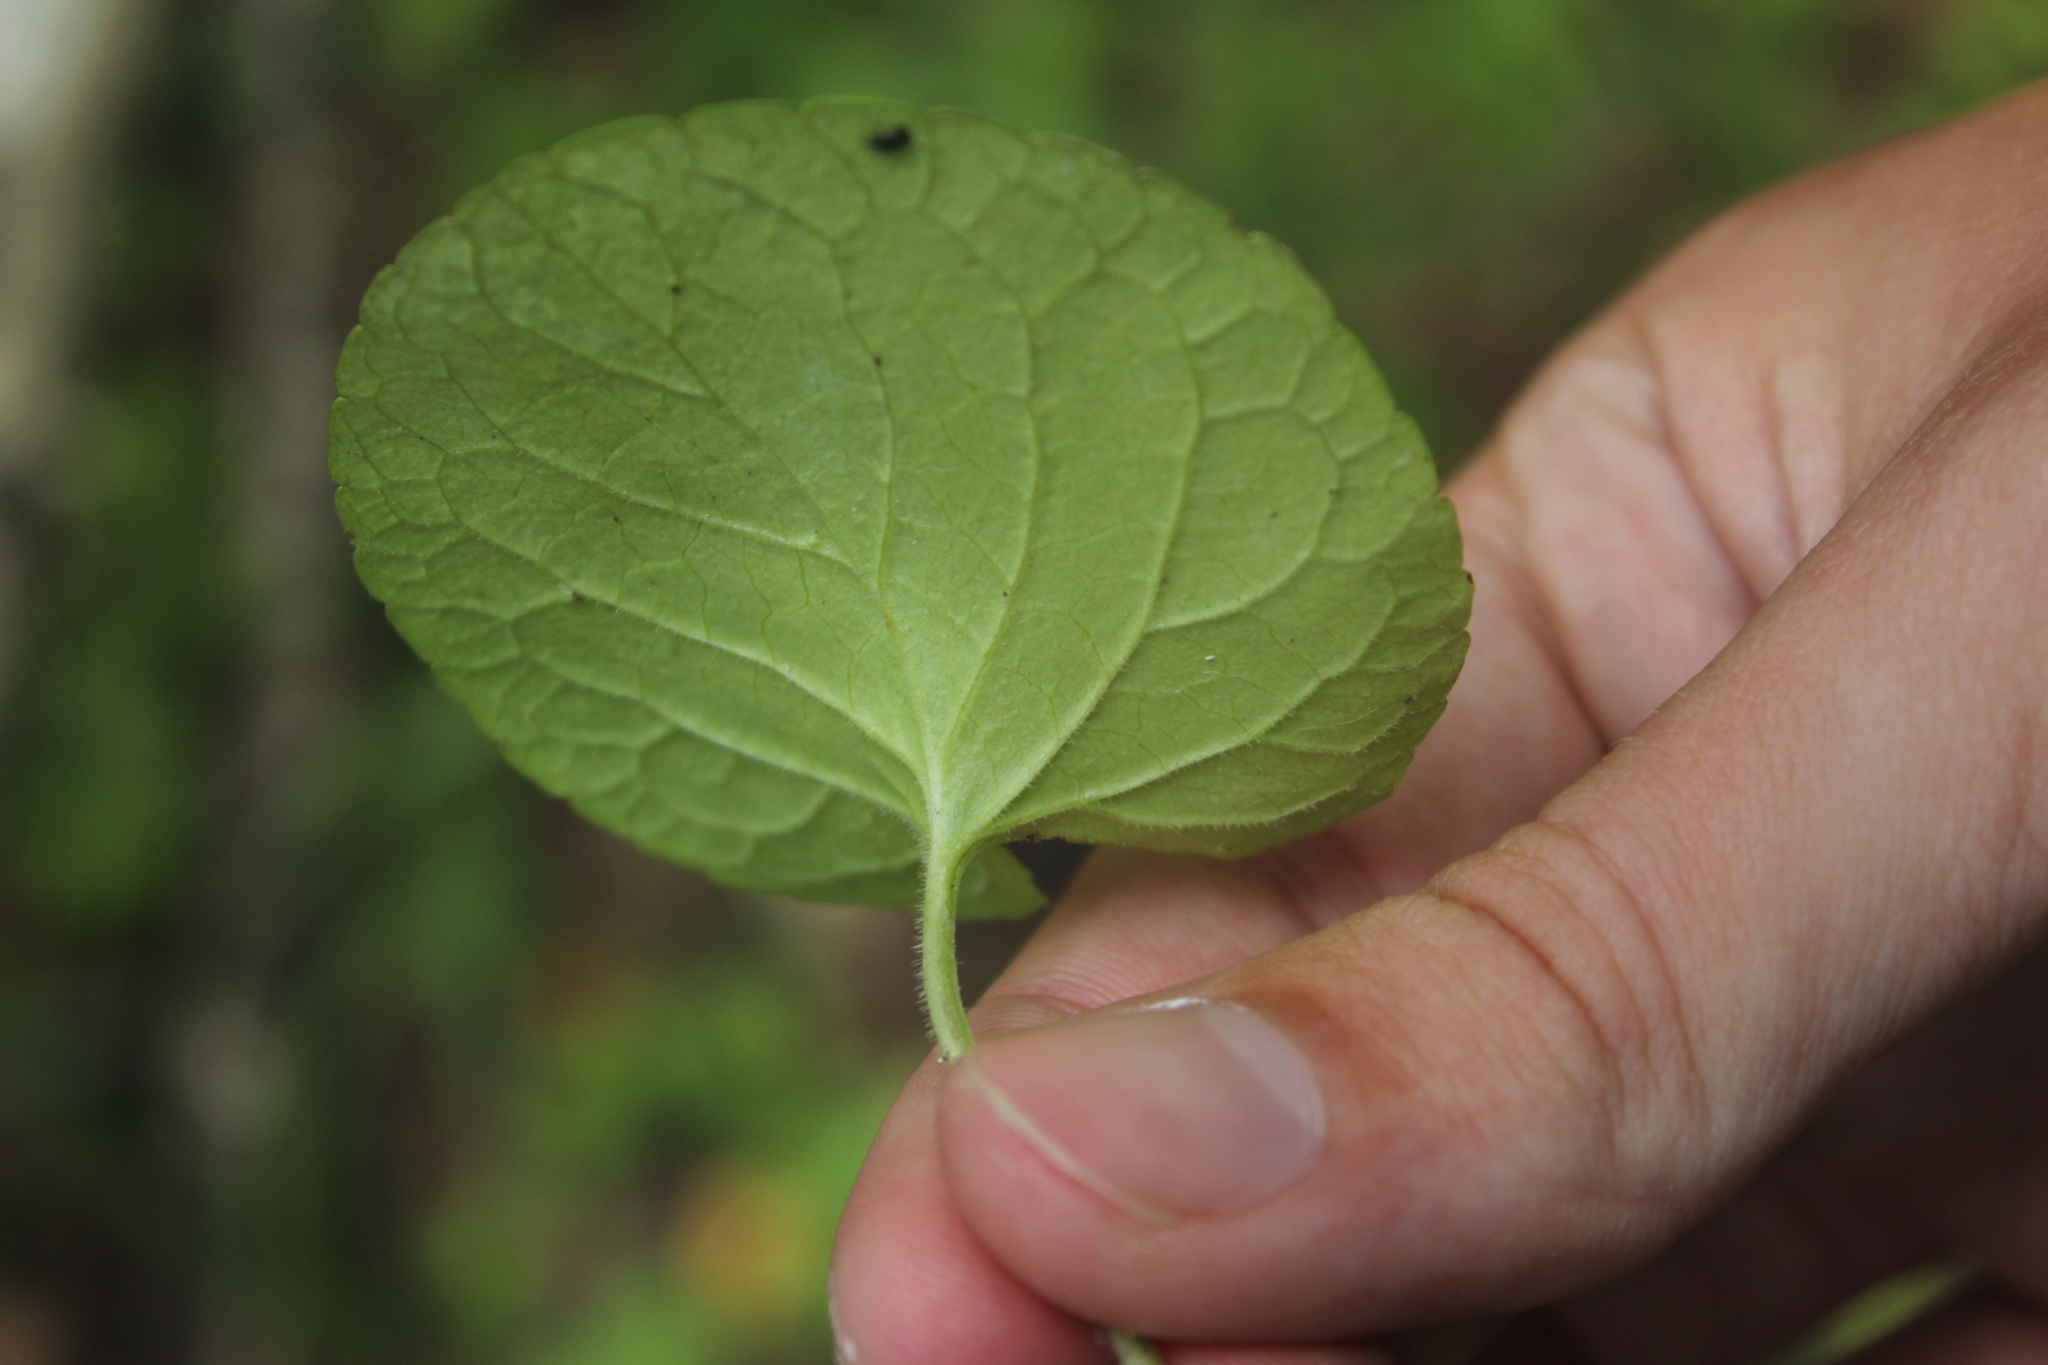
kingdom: Plantae
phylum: Tracheophyta
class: Magnoliopsida
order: Malpighiales
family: Violaceae
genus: Viola
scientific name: Viola epipsila
